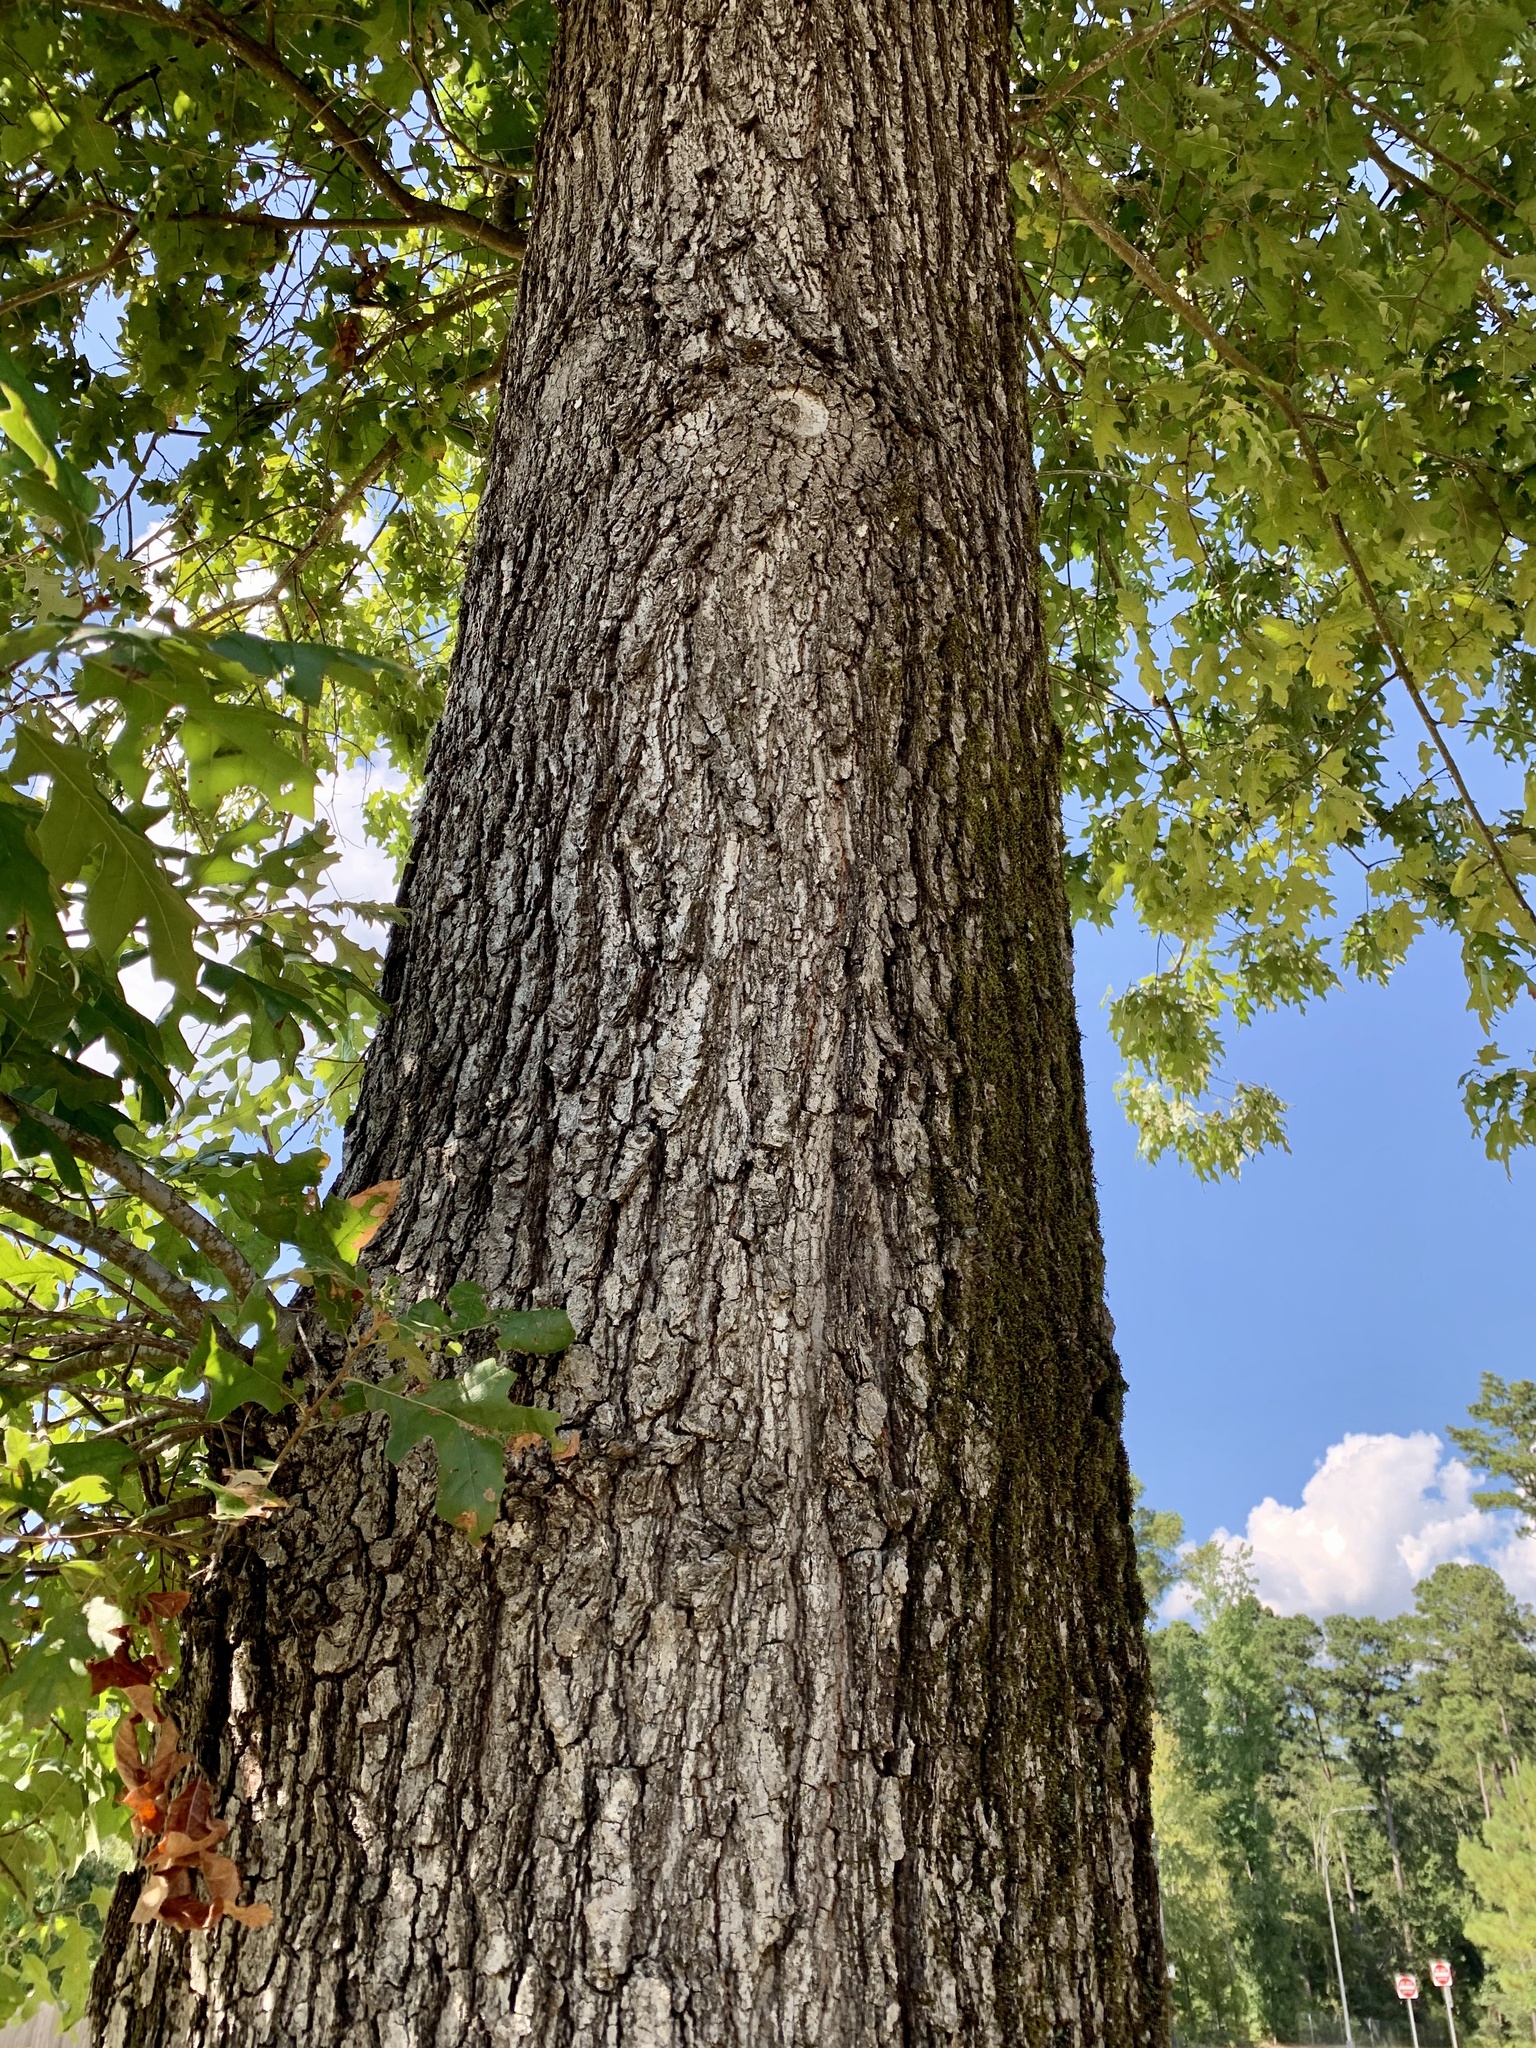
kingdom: Plantae
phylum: Tracheophyta
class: Magnoliopsida
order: Fagales
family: Fagaceae
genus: Quercus
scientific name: Quercus pagoda
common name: Cherrybark oak
